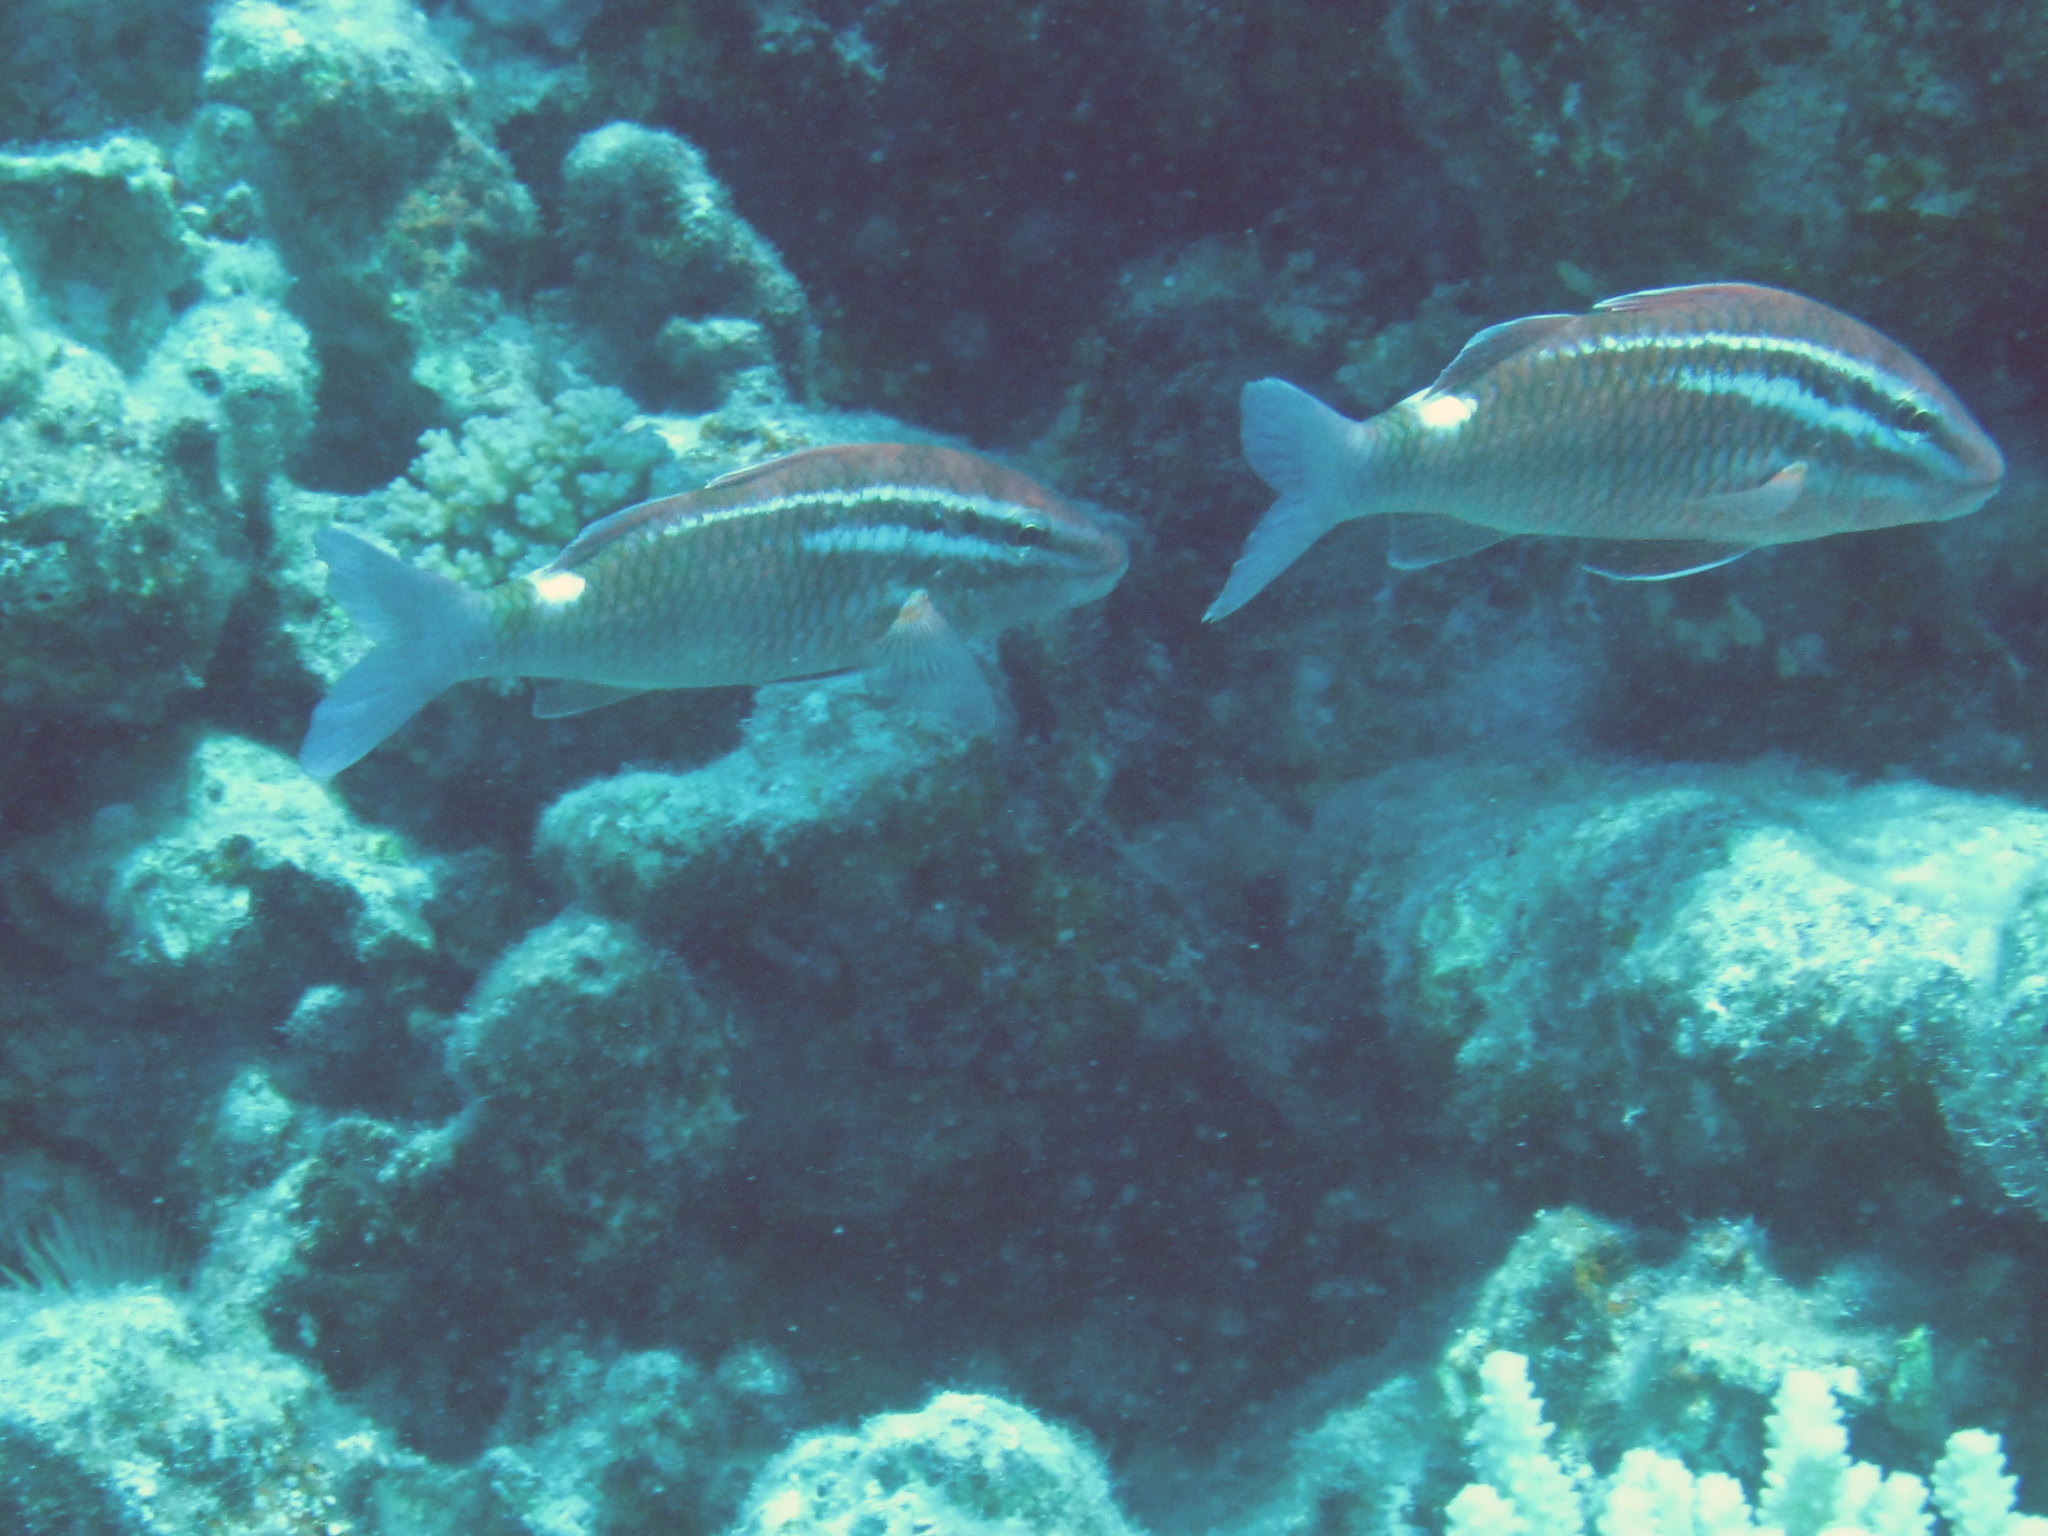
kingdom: Animalia
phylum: Chordata
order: Perciformes
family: Mullidae
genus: Parupeneus
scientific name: Parupeneus porphyreus
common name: Whitesaddle goatfish
